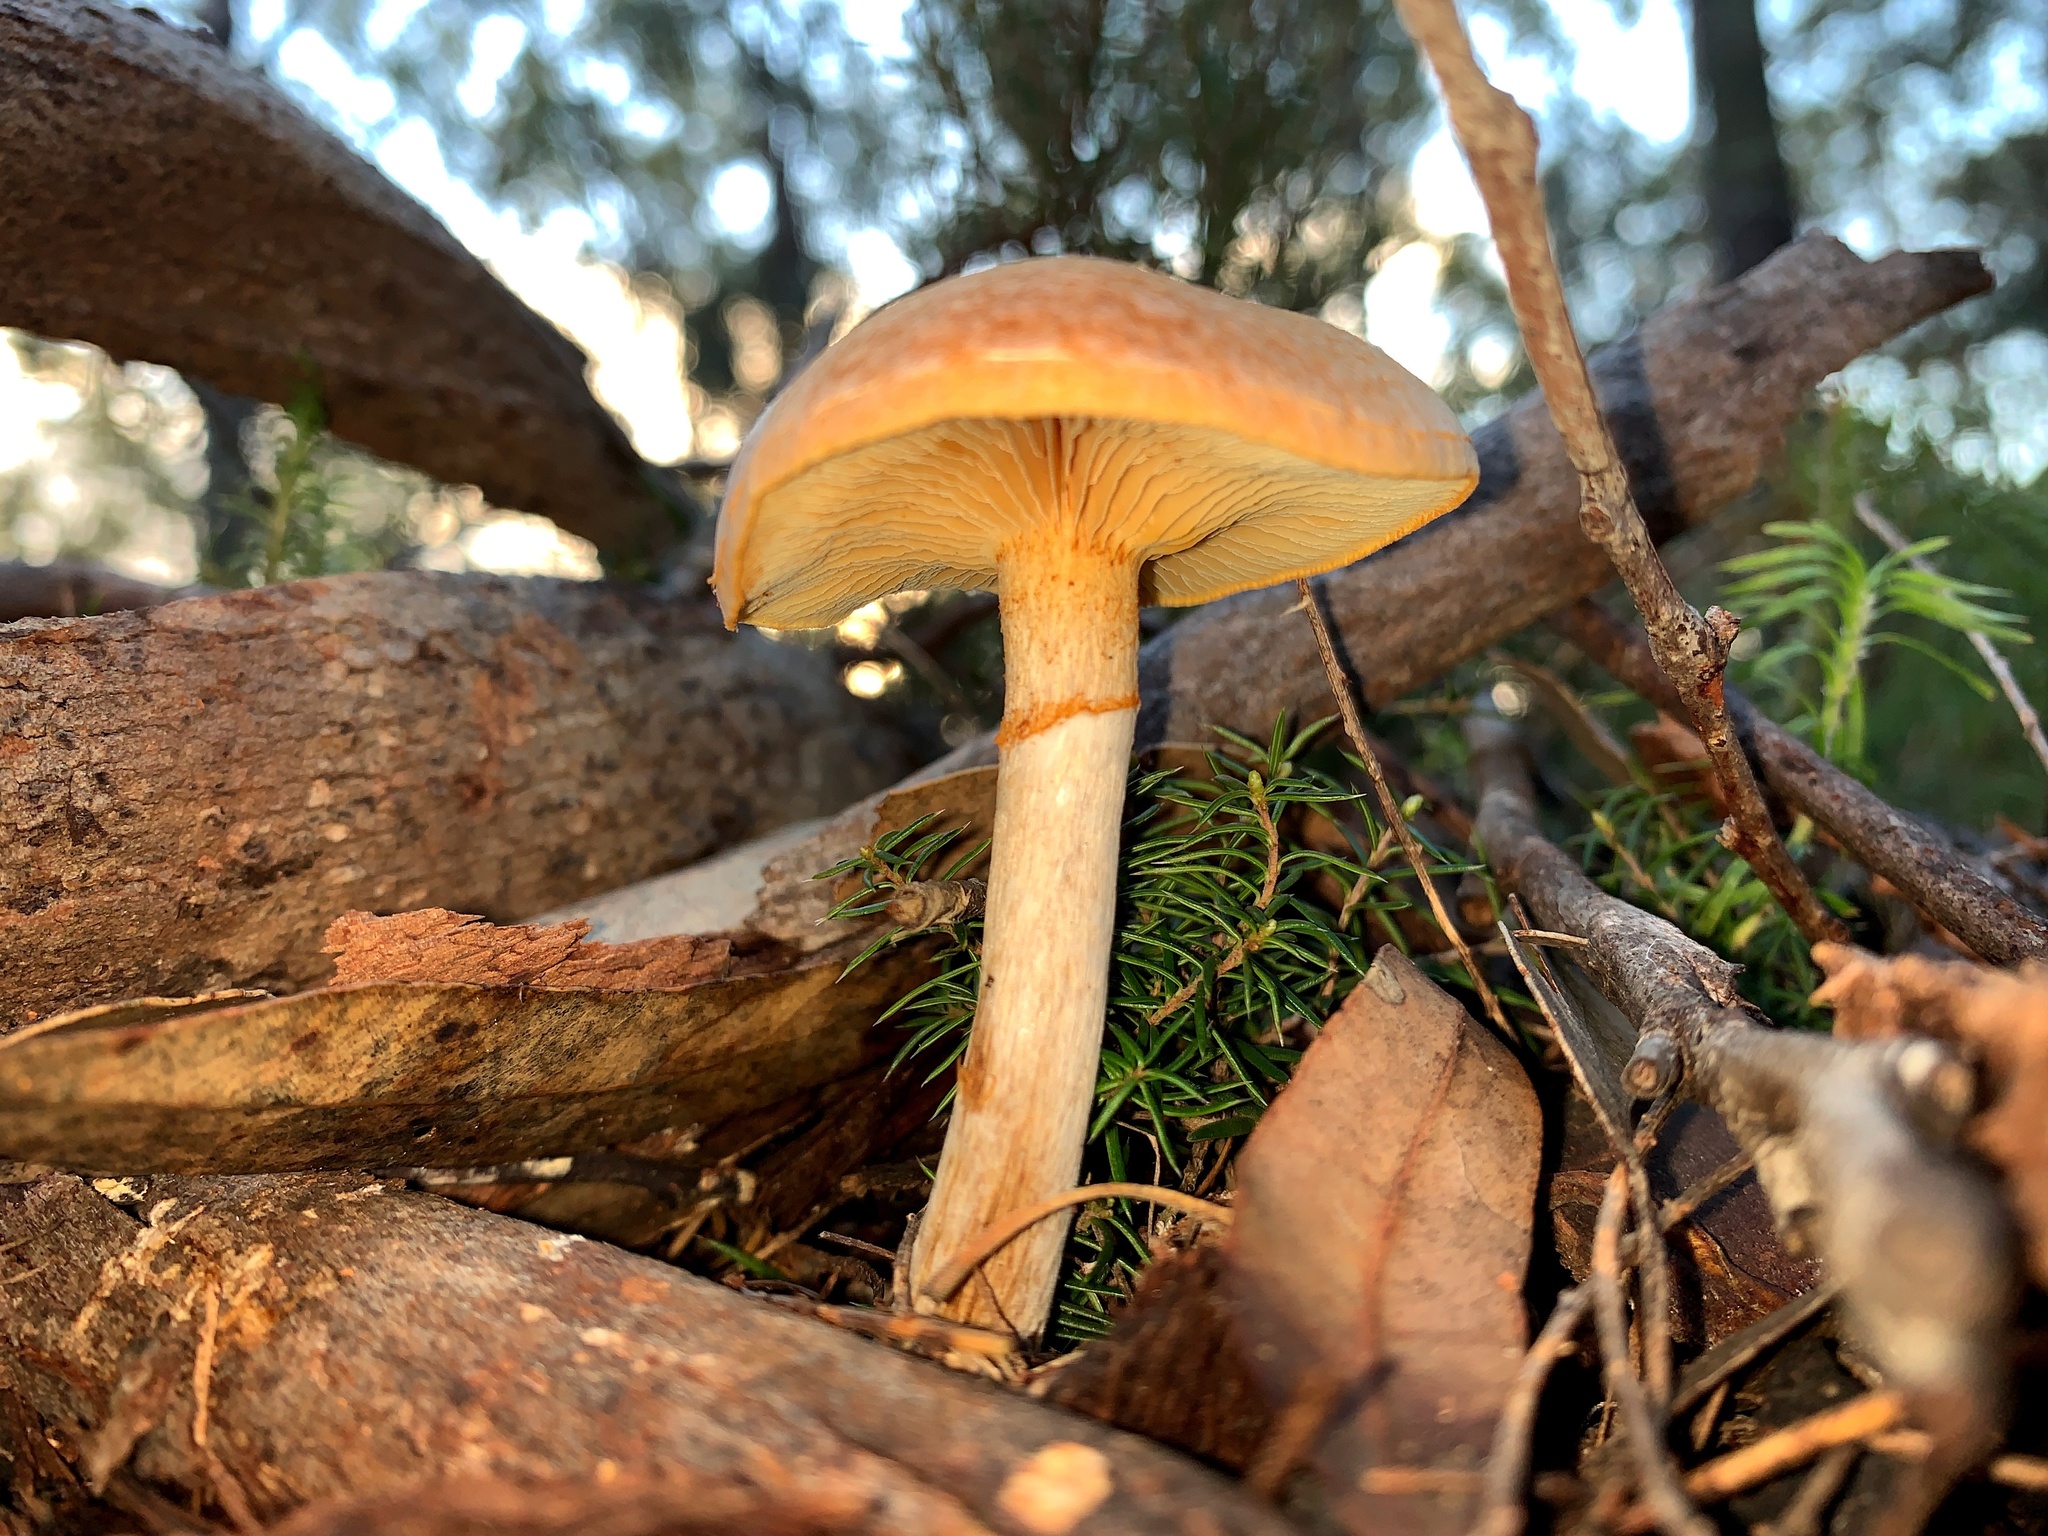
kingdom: Fungi
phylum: Basidiomycota
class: Agaricomycetes
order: Agaricales
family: Hymenogastraceae
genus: Gymnopilus
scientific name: Gymnopilus allantopus
